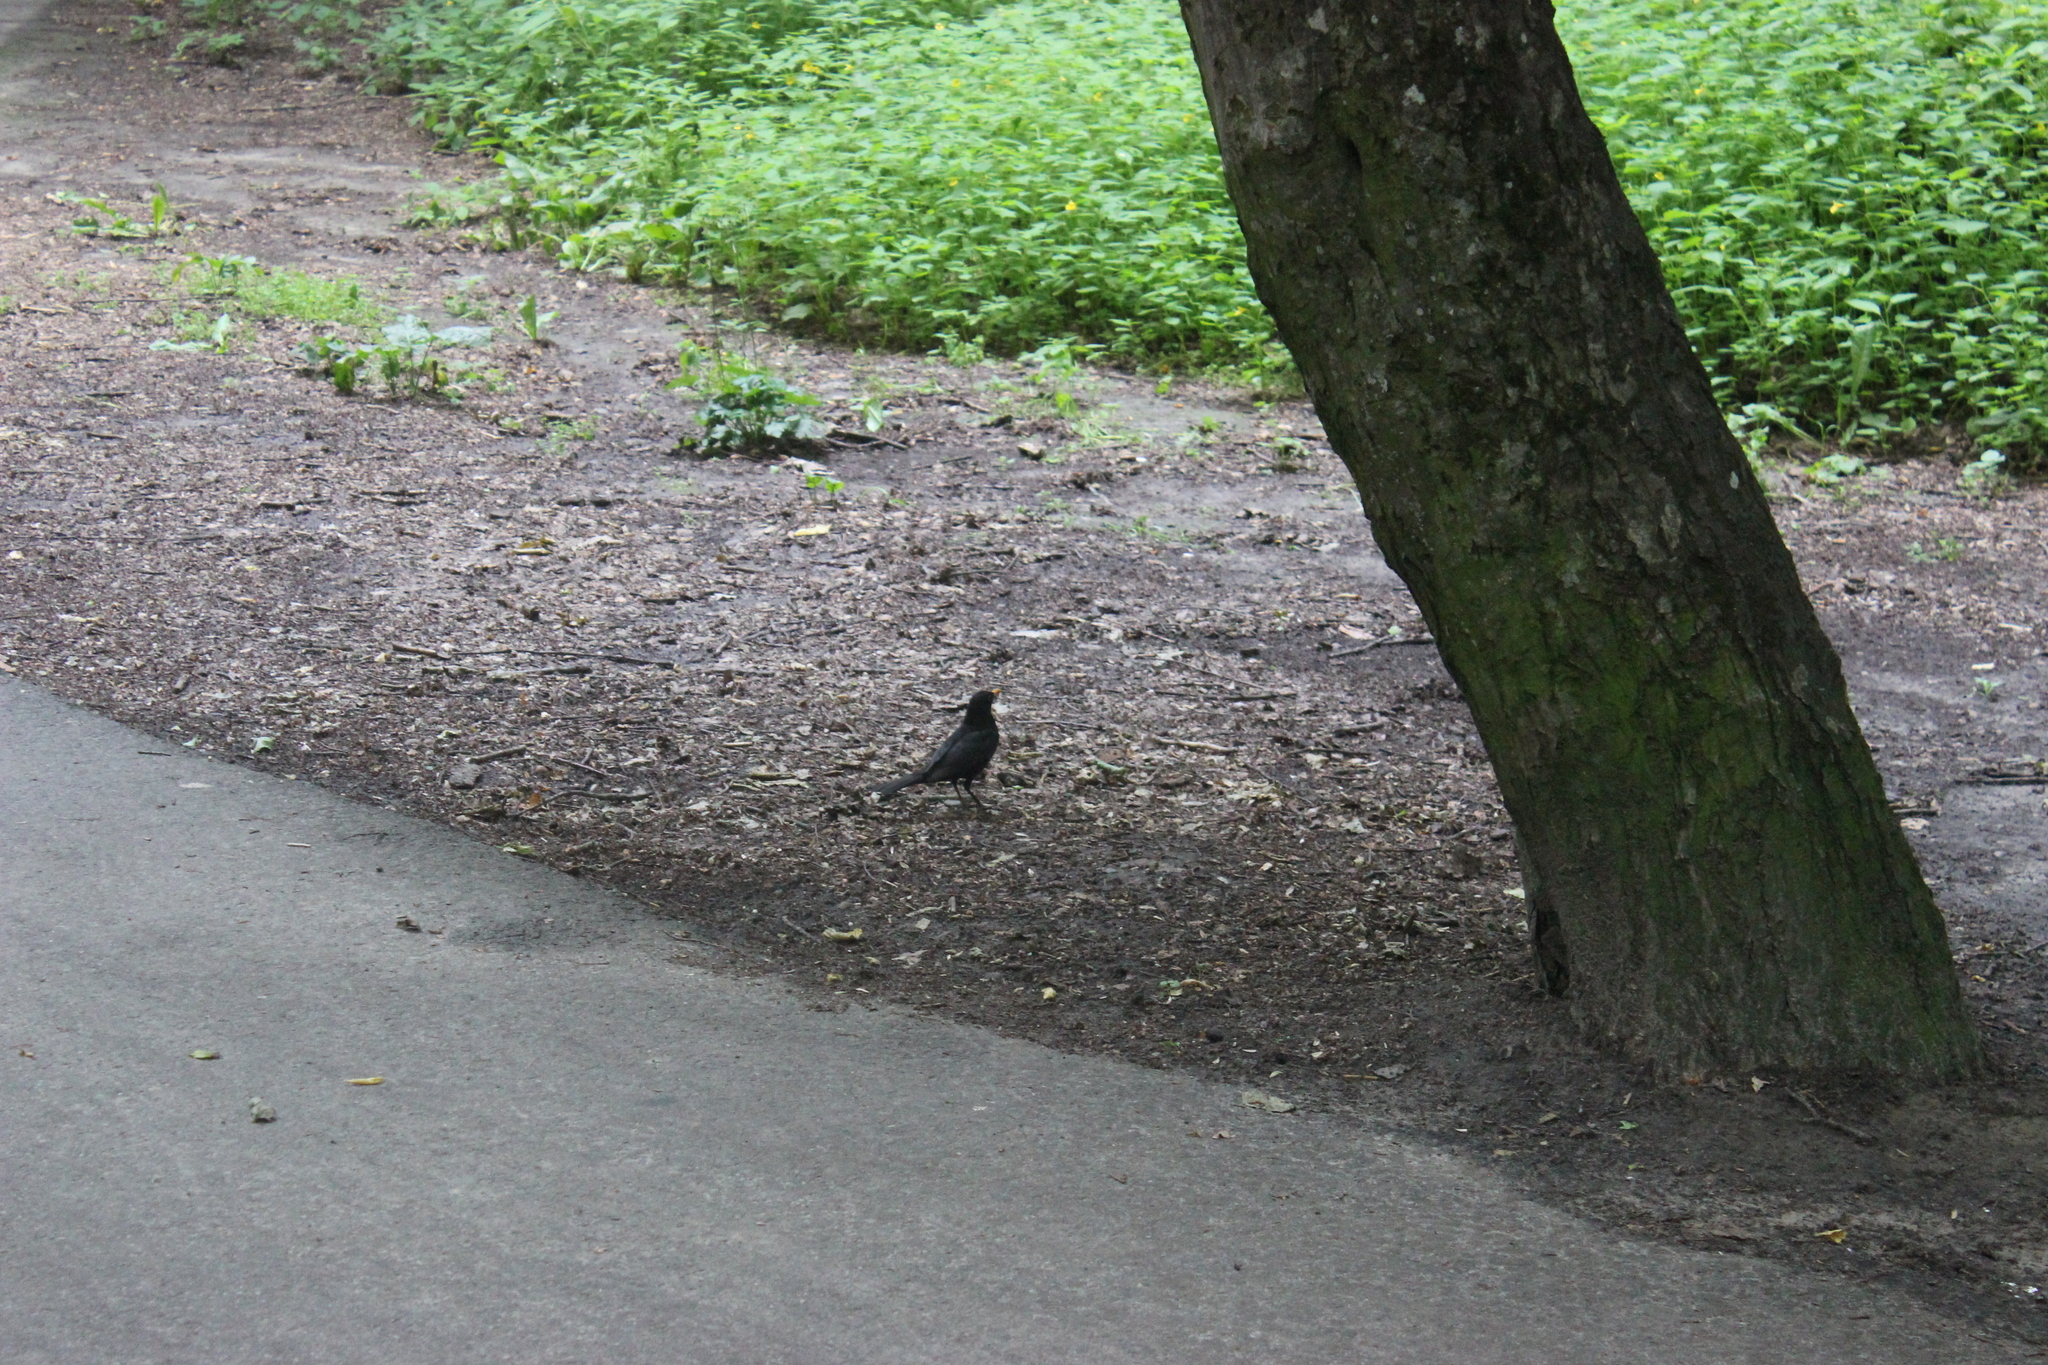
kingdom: Animalia
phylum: Chordata
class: Aves
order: Passeriformes
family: Turdidae
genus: Turdus
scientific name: Turdus merula
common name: Common blackbird
